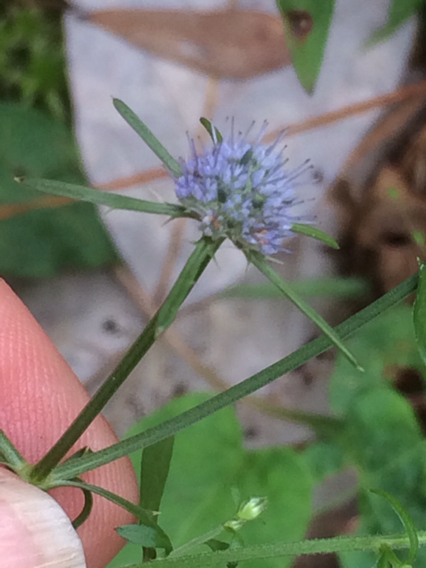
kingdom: Plantae
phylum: Tracheophyta
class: Magnoliopsida
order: Apiales
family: Apiaceae
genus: Eryngium
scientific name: Eryngium integrifolium
